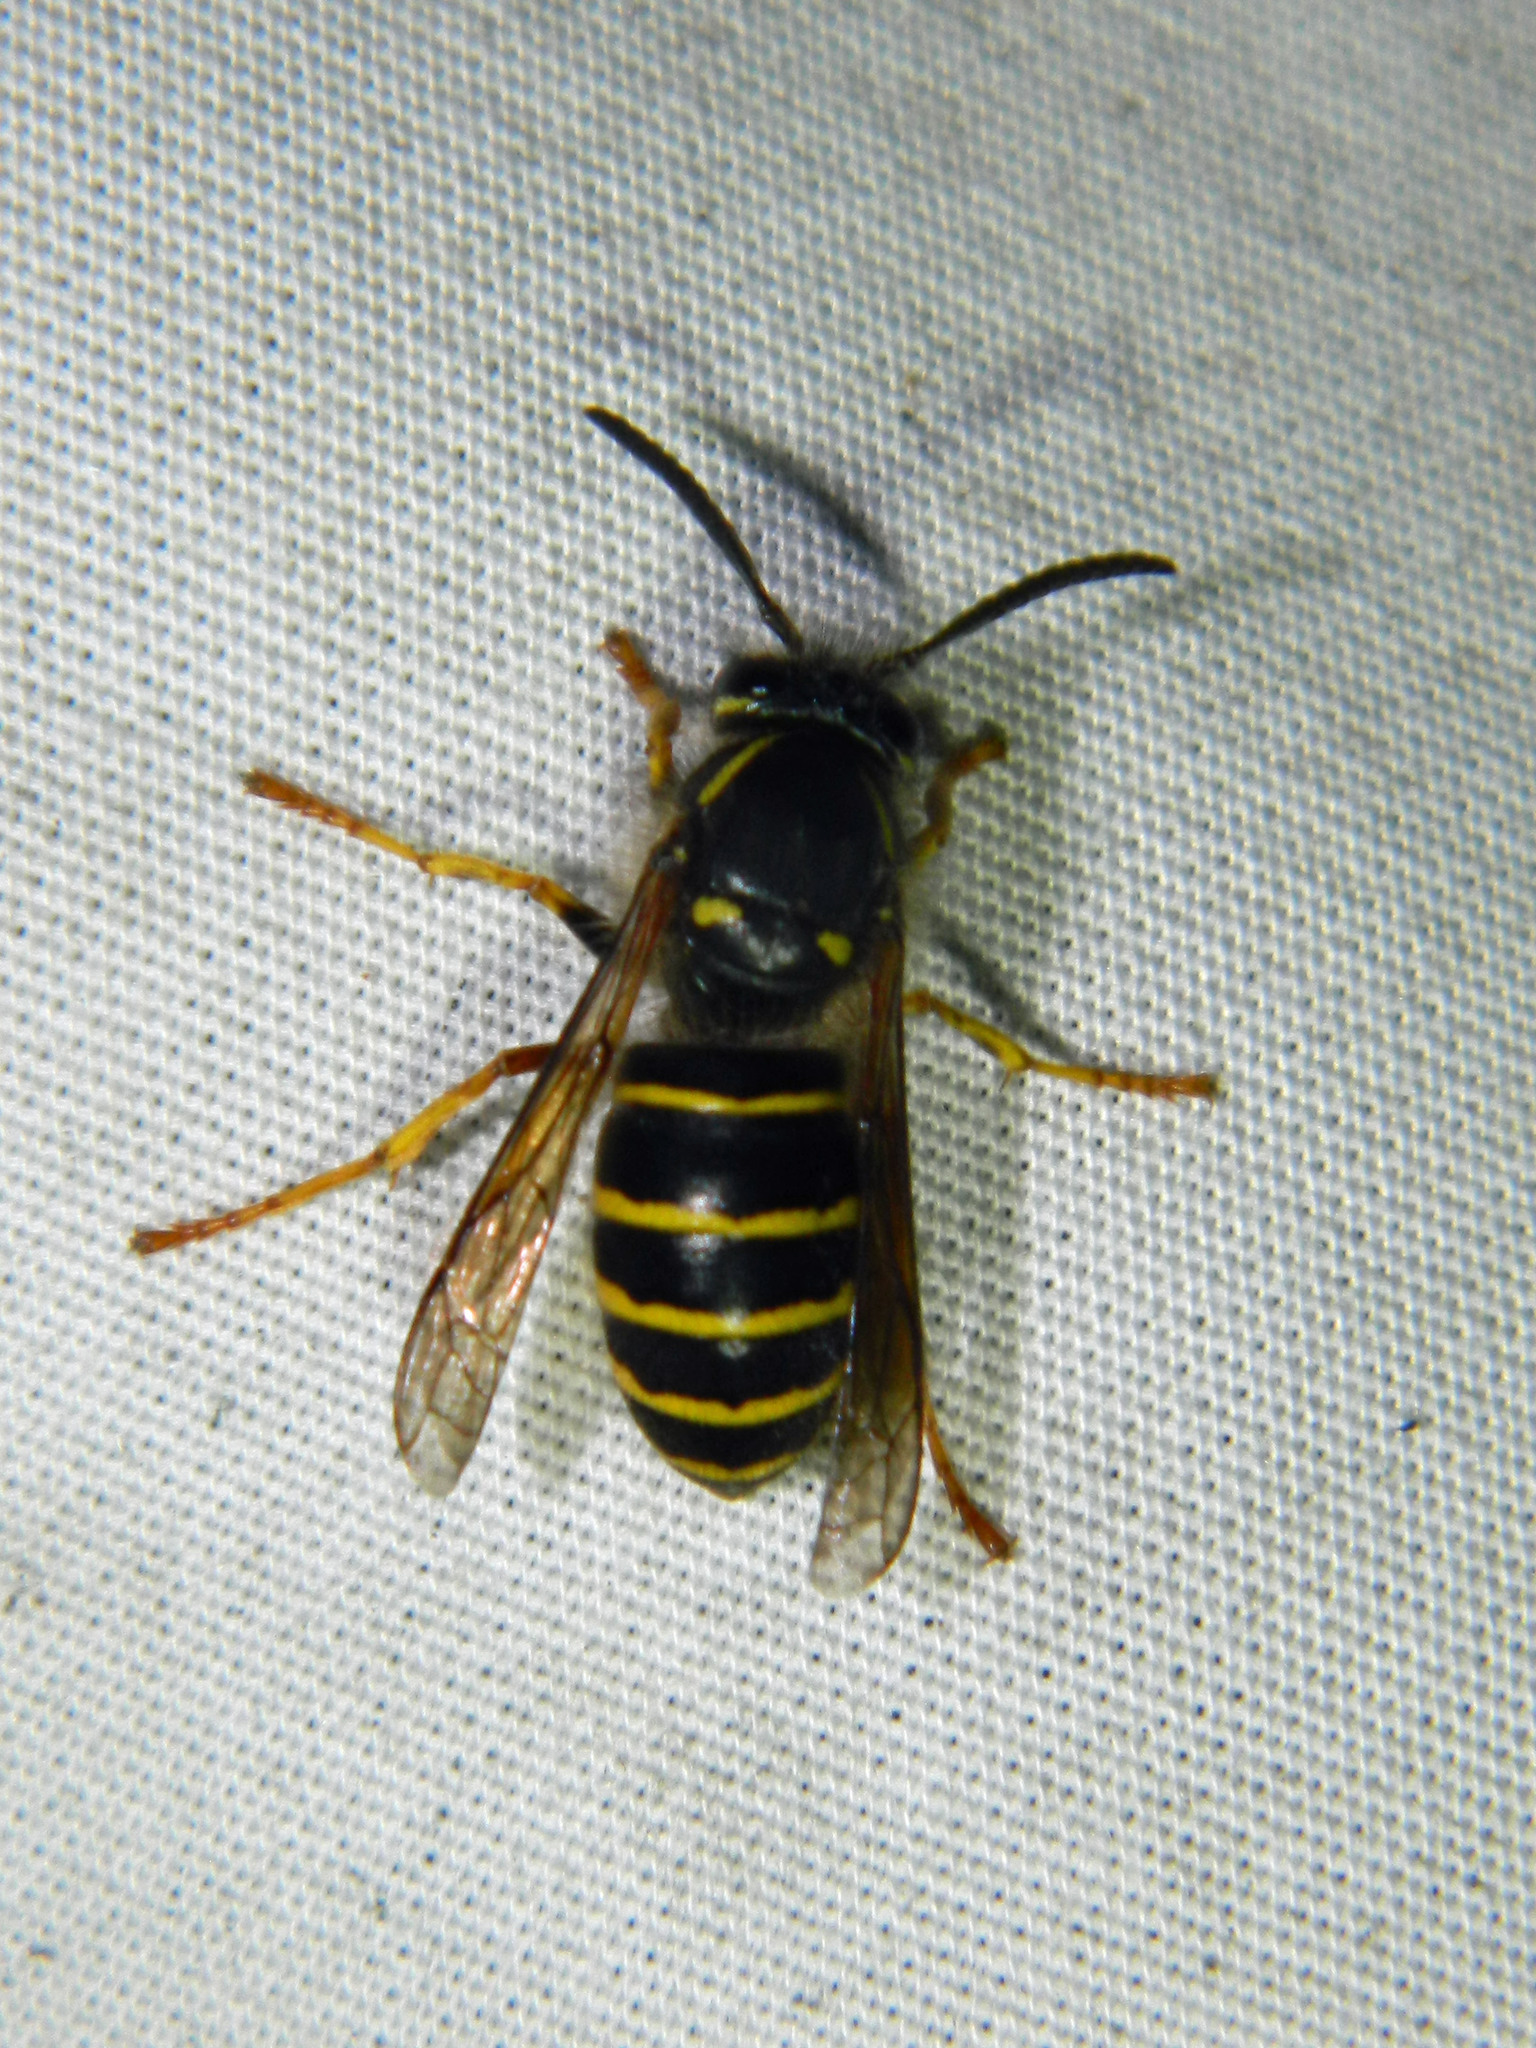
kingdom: Animalia
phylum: Arthropoda
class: Insecta
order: Hymenoptera
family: Vespidae
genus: Dolichovespula
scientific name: Dolichovespula norvegicoides
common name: Northern aerial yellowjacket
